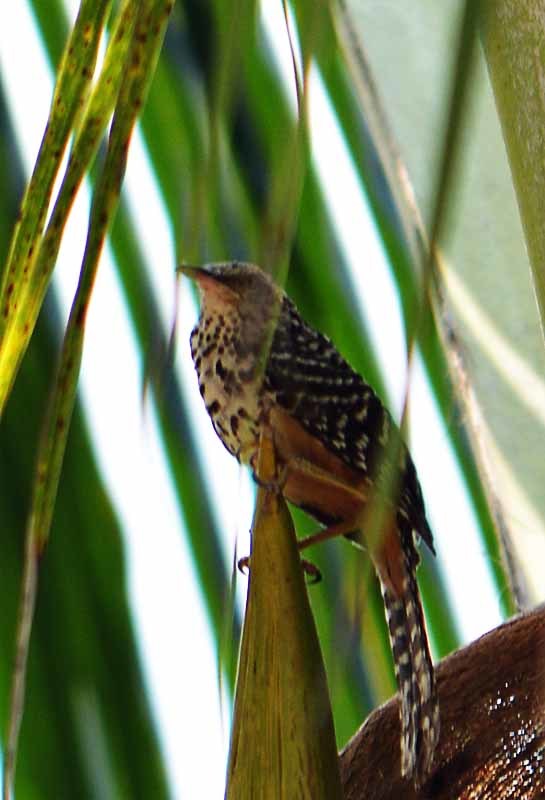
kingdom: Animalia
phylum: Chordata
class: Aves
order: Passeriformes
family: Troglodytidae
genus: Campylorhynchus
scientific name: Campylorhynchus zonatus
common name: Band-backed wren
